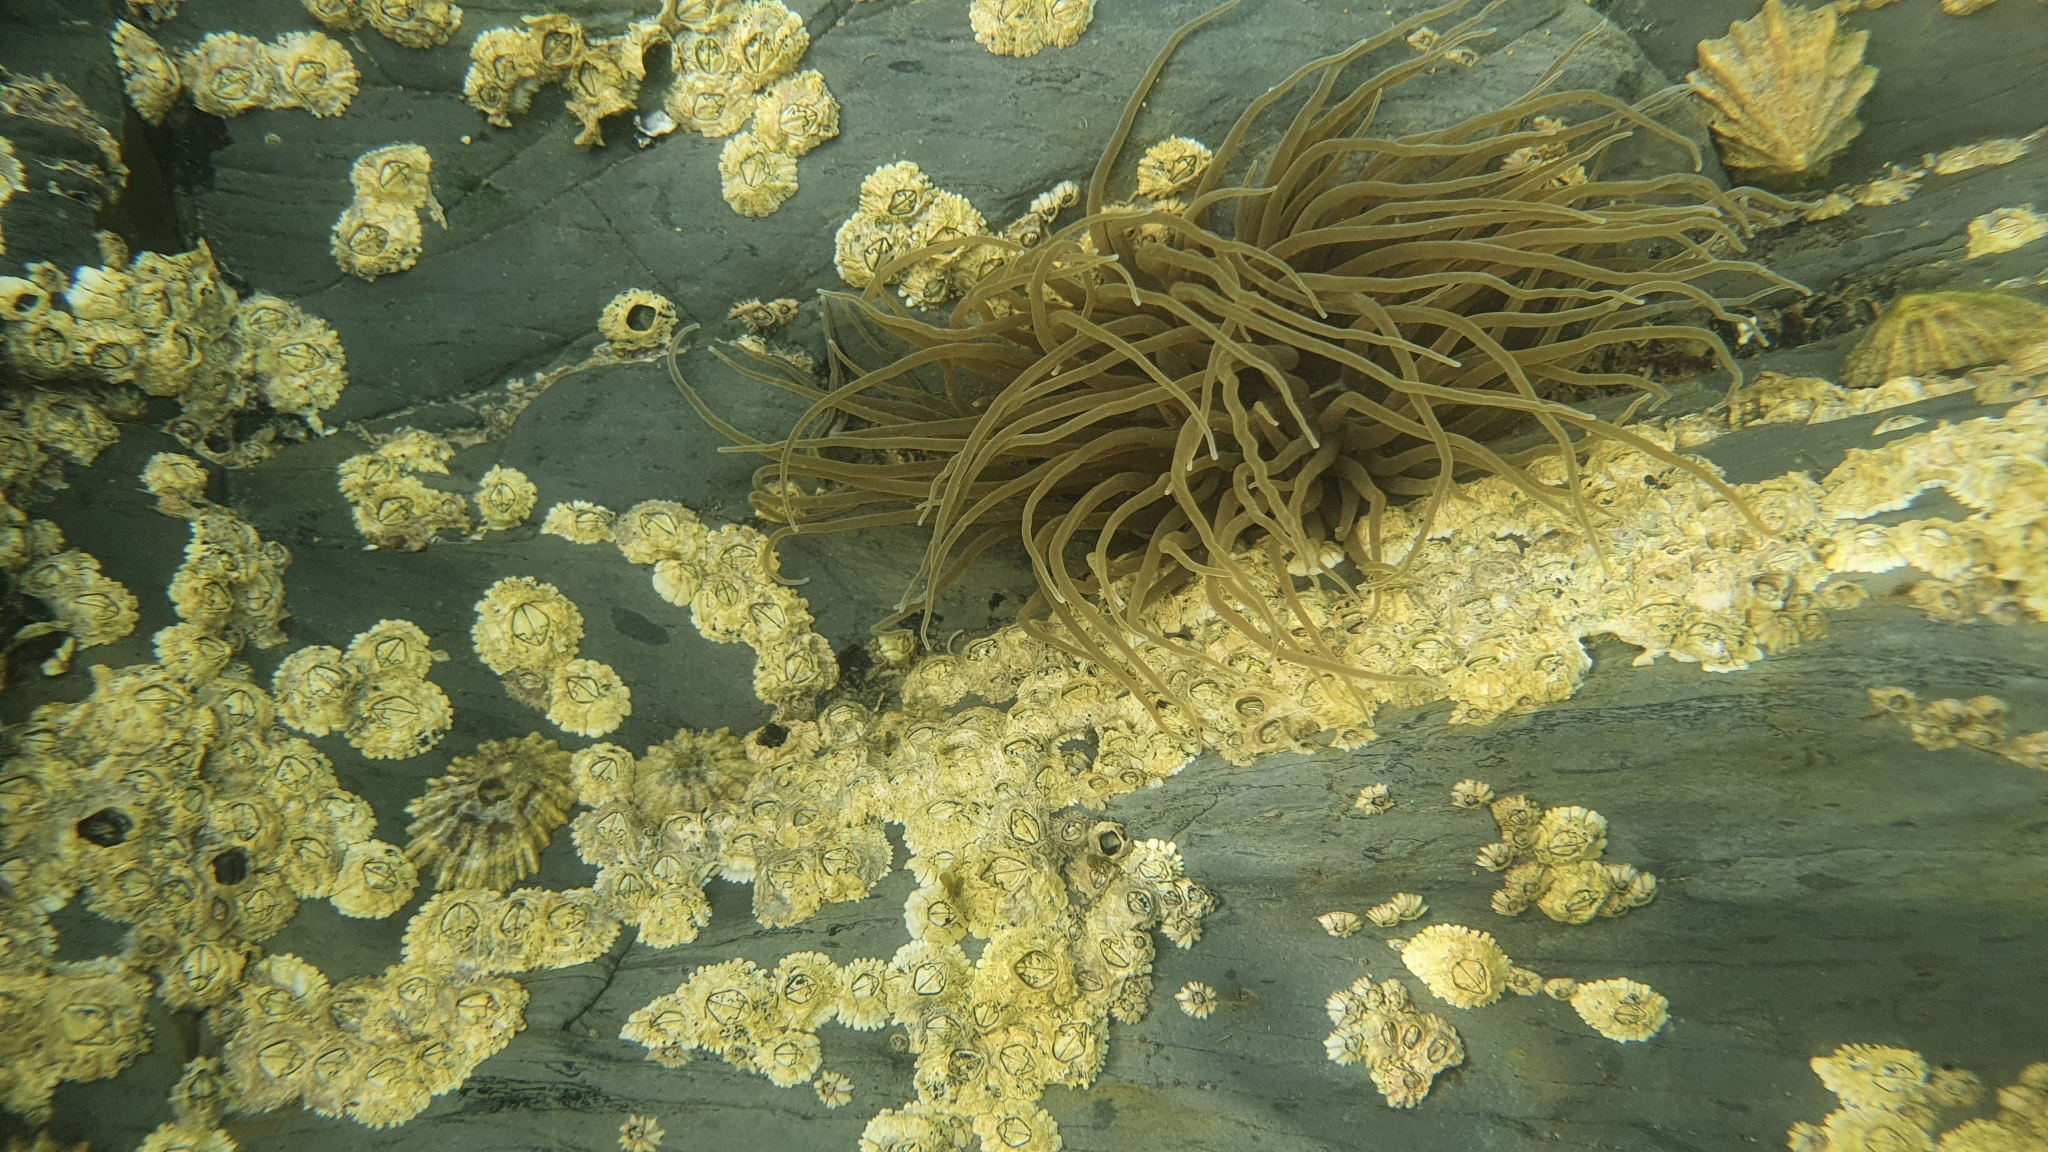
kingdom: Animalia
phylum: Cnidaria
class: Anthozoa
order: Actiniaria
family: Actiniidae
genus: Anemonia
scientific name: Anemonia viridis
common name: Snakelocks anemone
